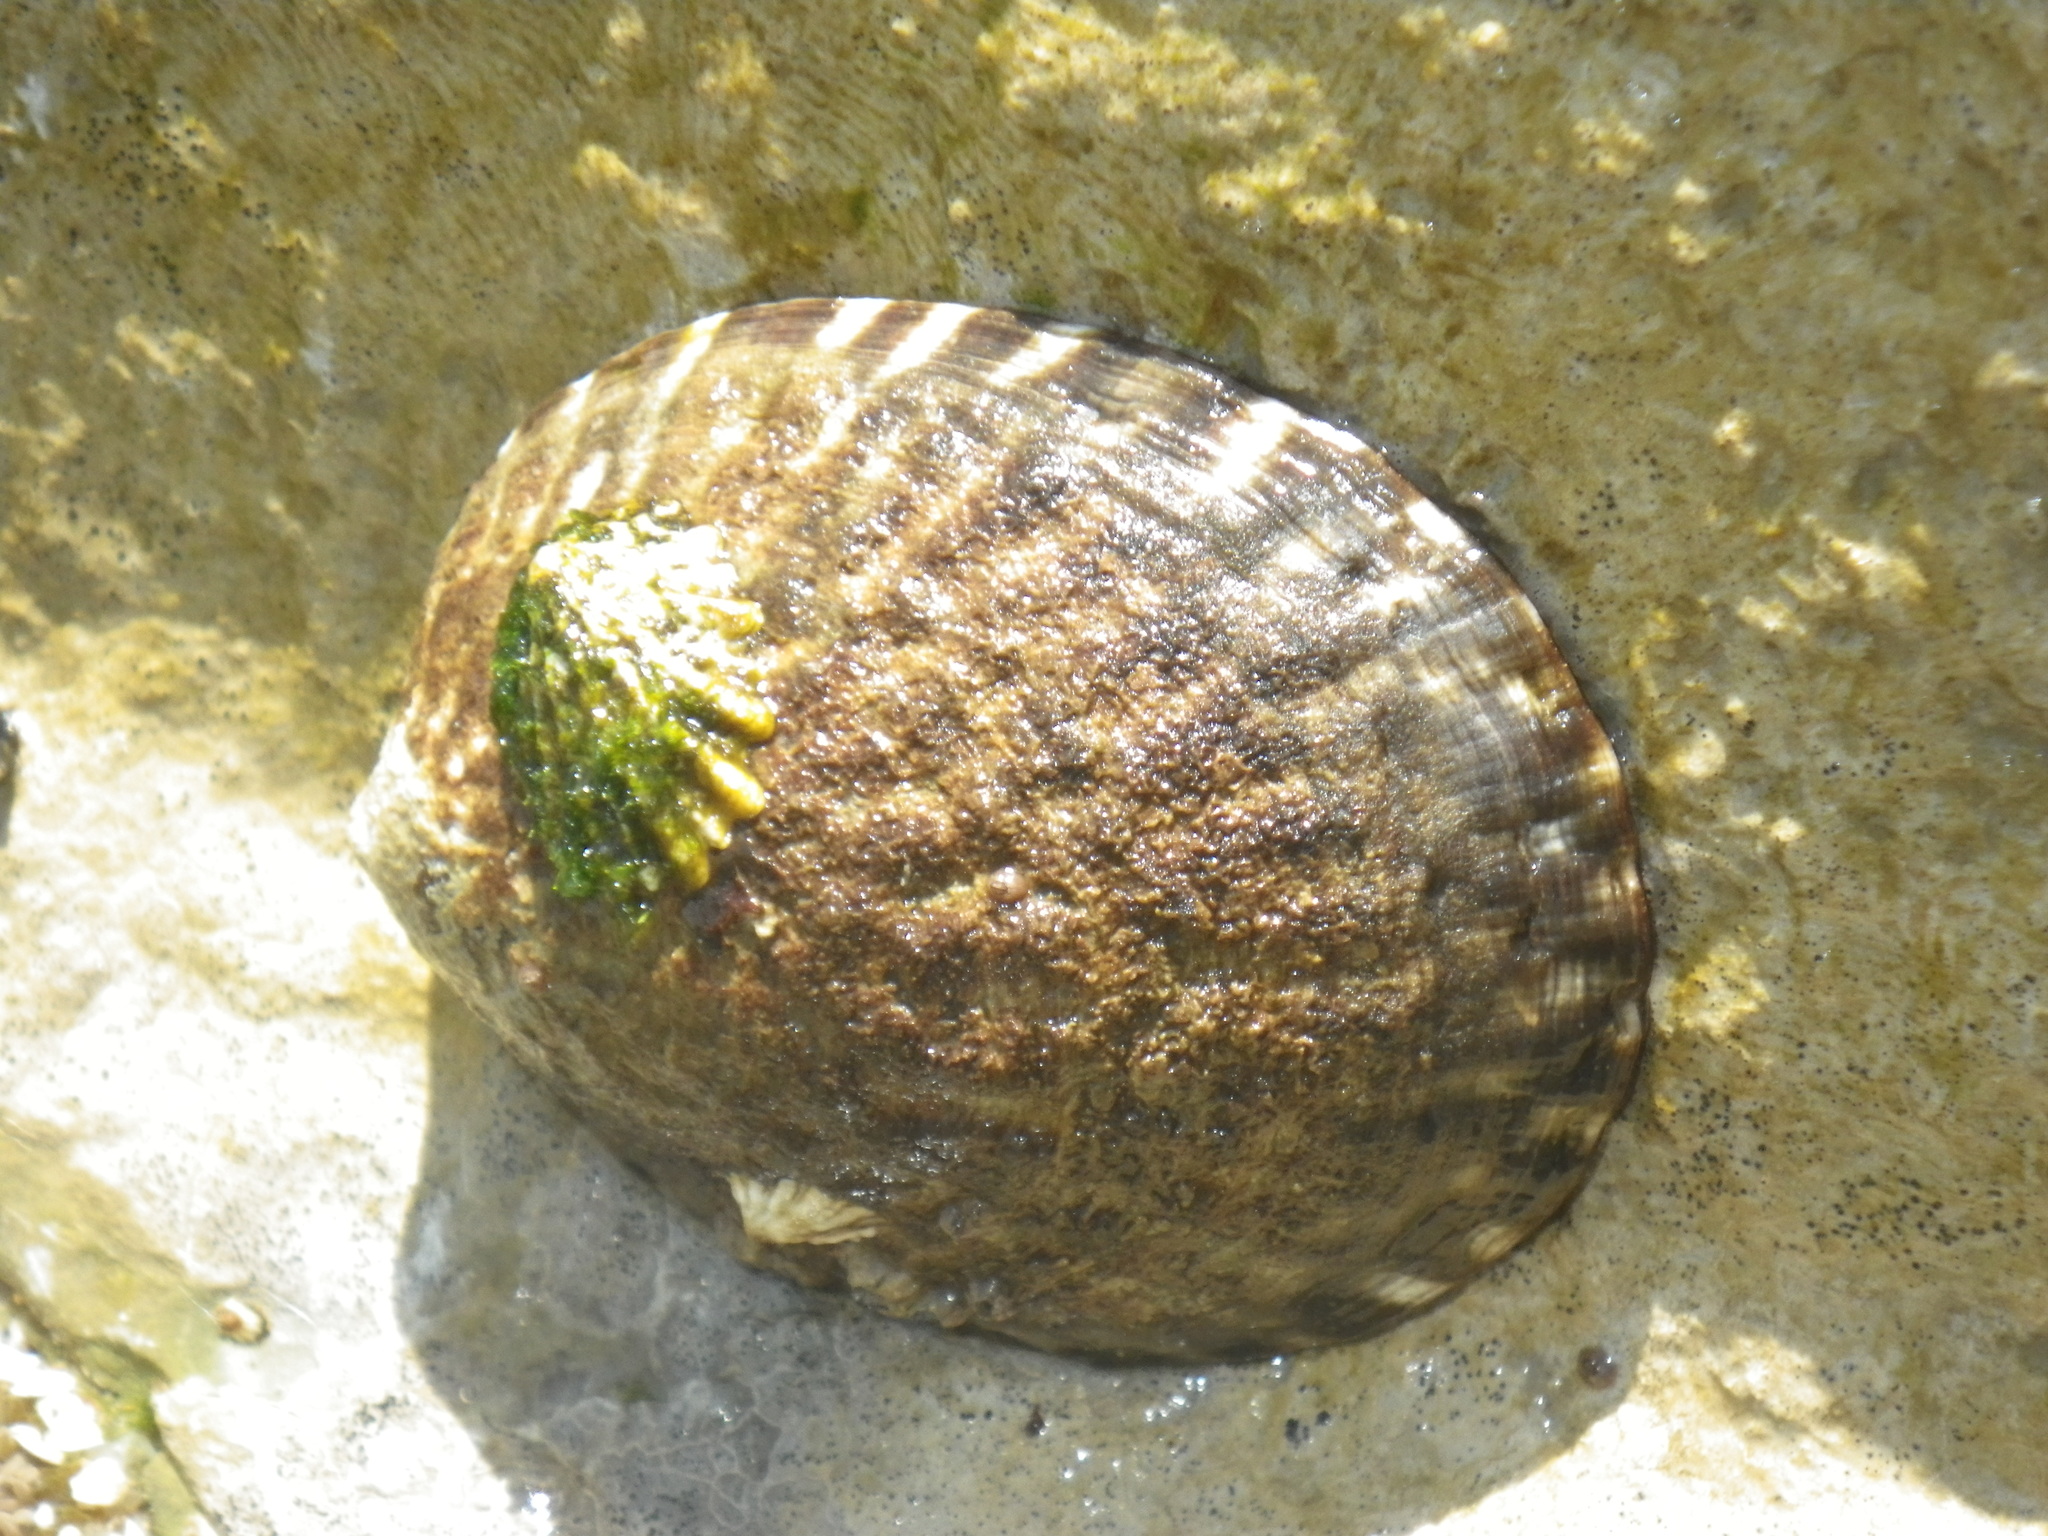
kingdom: Animalia
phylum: Mollusca
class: Gastropoda
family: Lottiidae
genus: Lottia
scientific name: Lottia scabra
